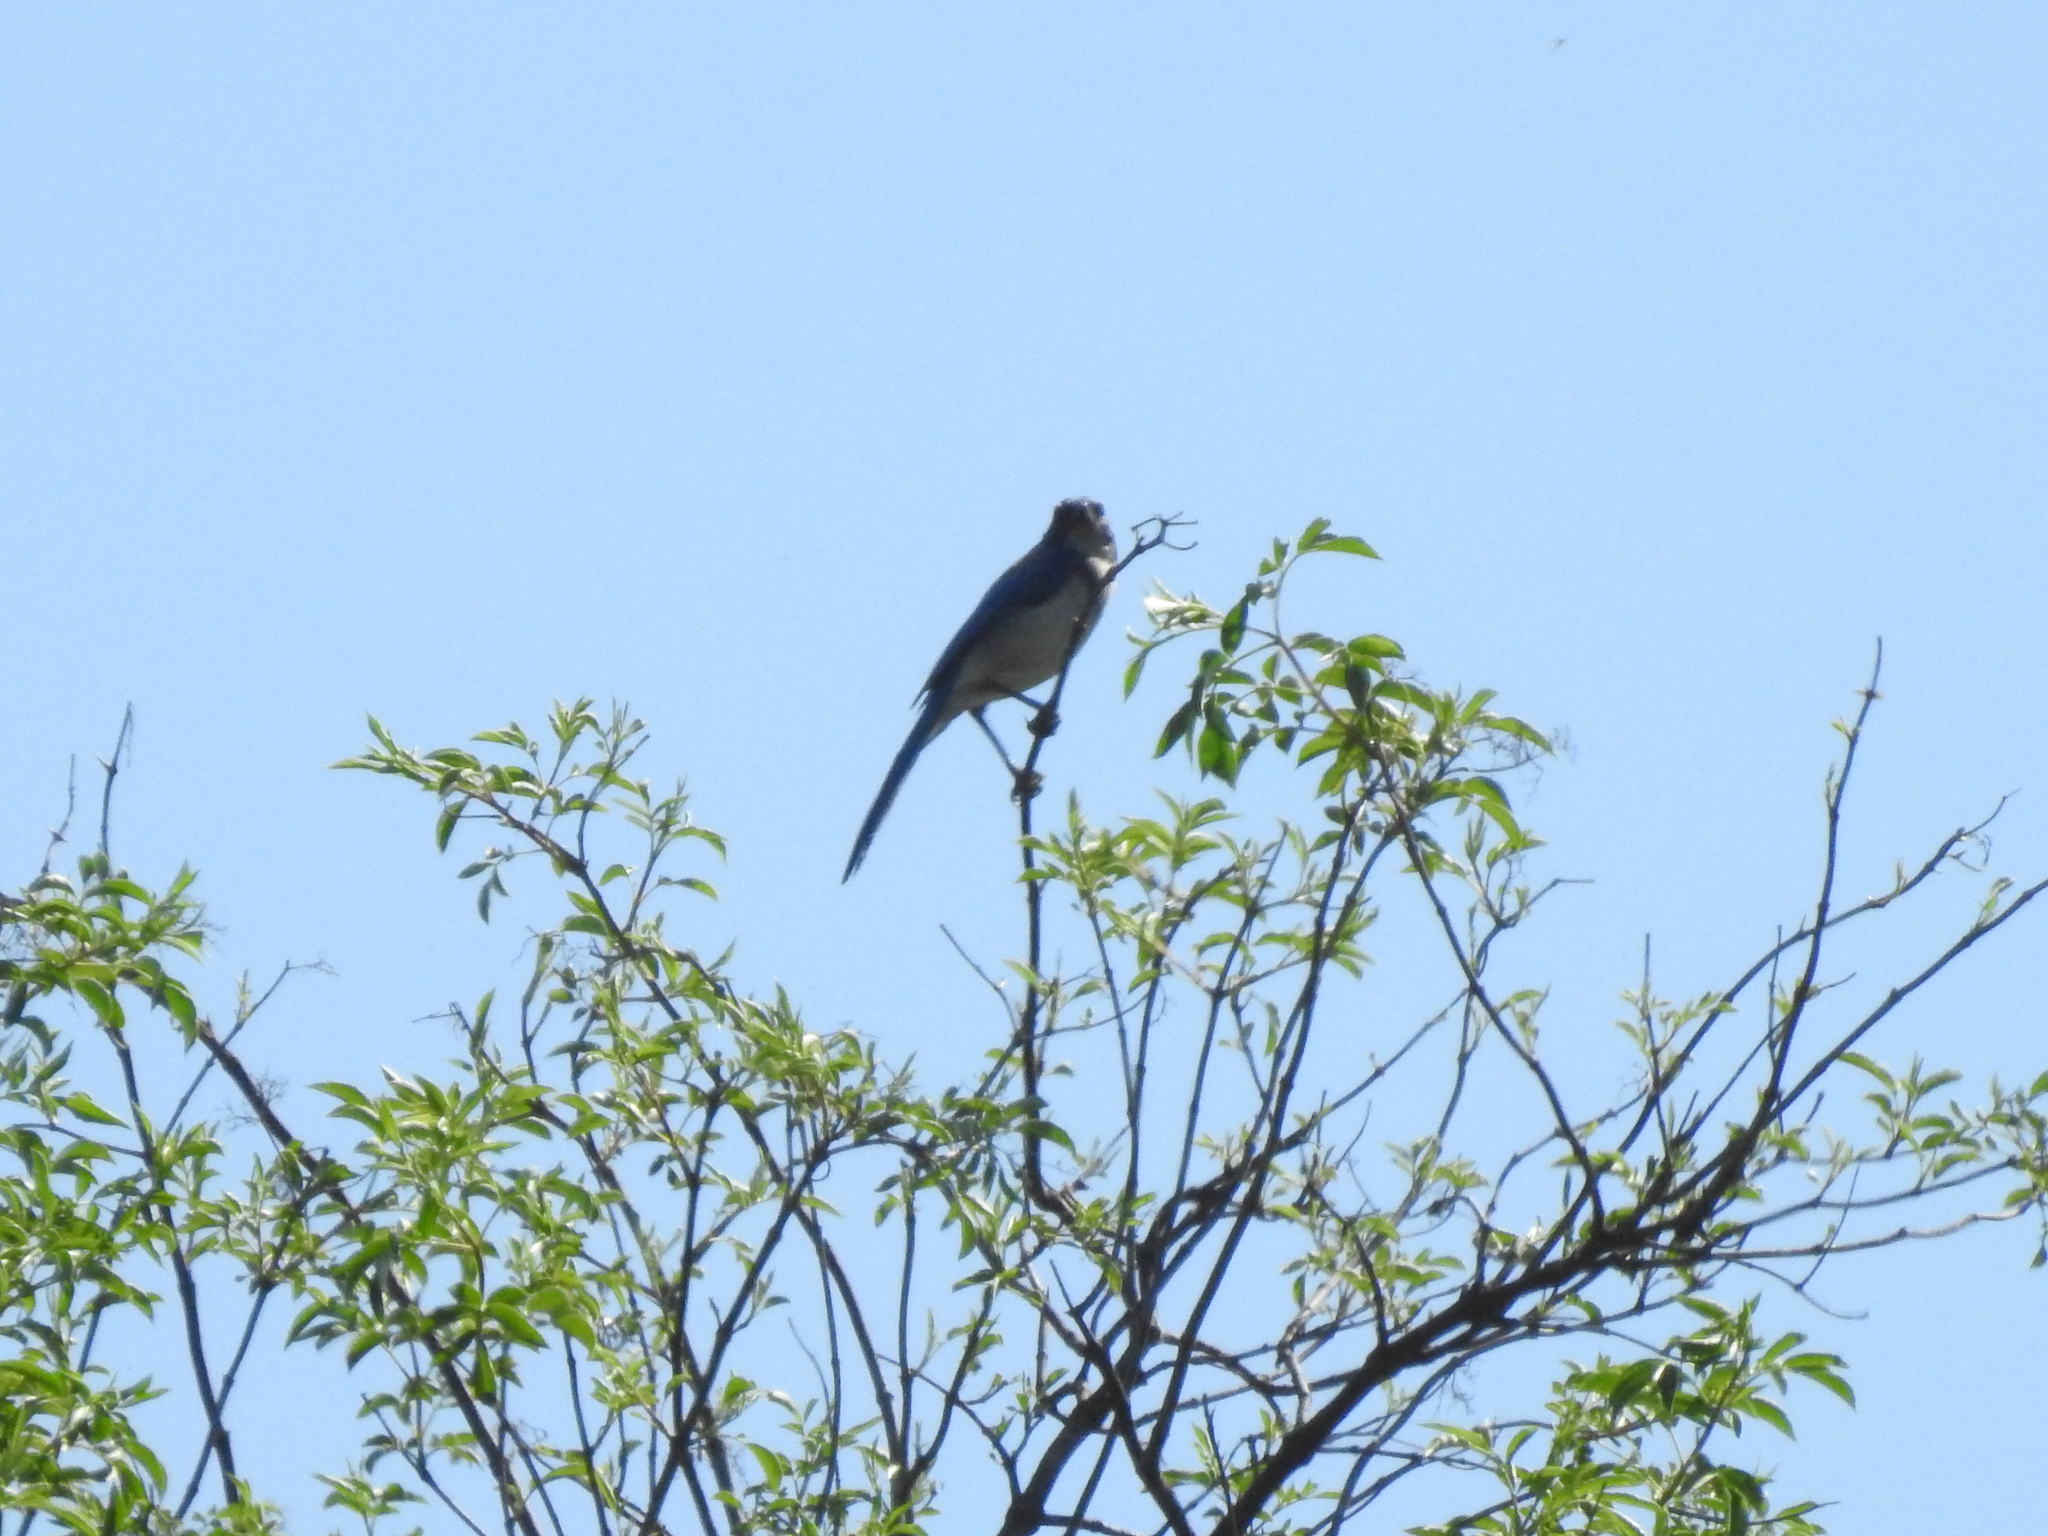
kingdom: Animalia
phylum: Chordata
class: Aves
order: Passeriformes
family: Corvidae
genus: Aphelocoma
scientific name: Aphelocoma californica
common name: California scrub-jay
